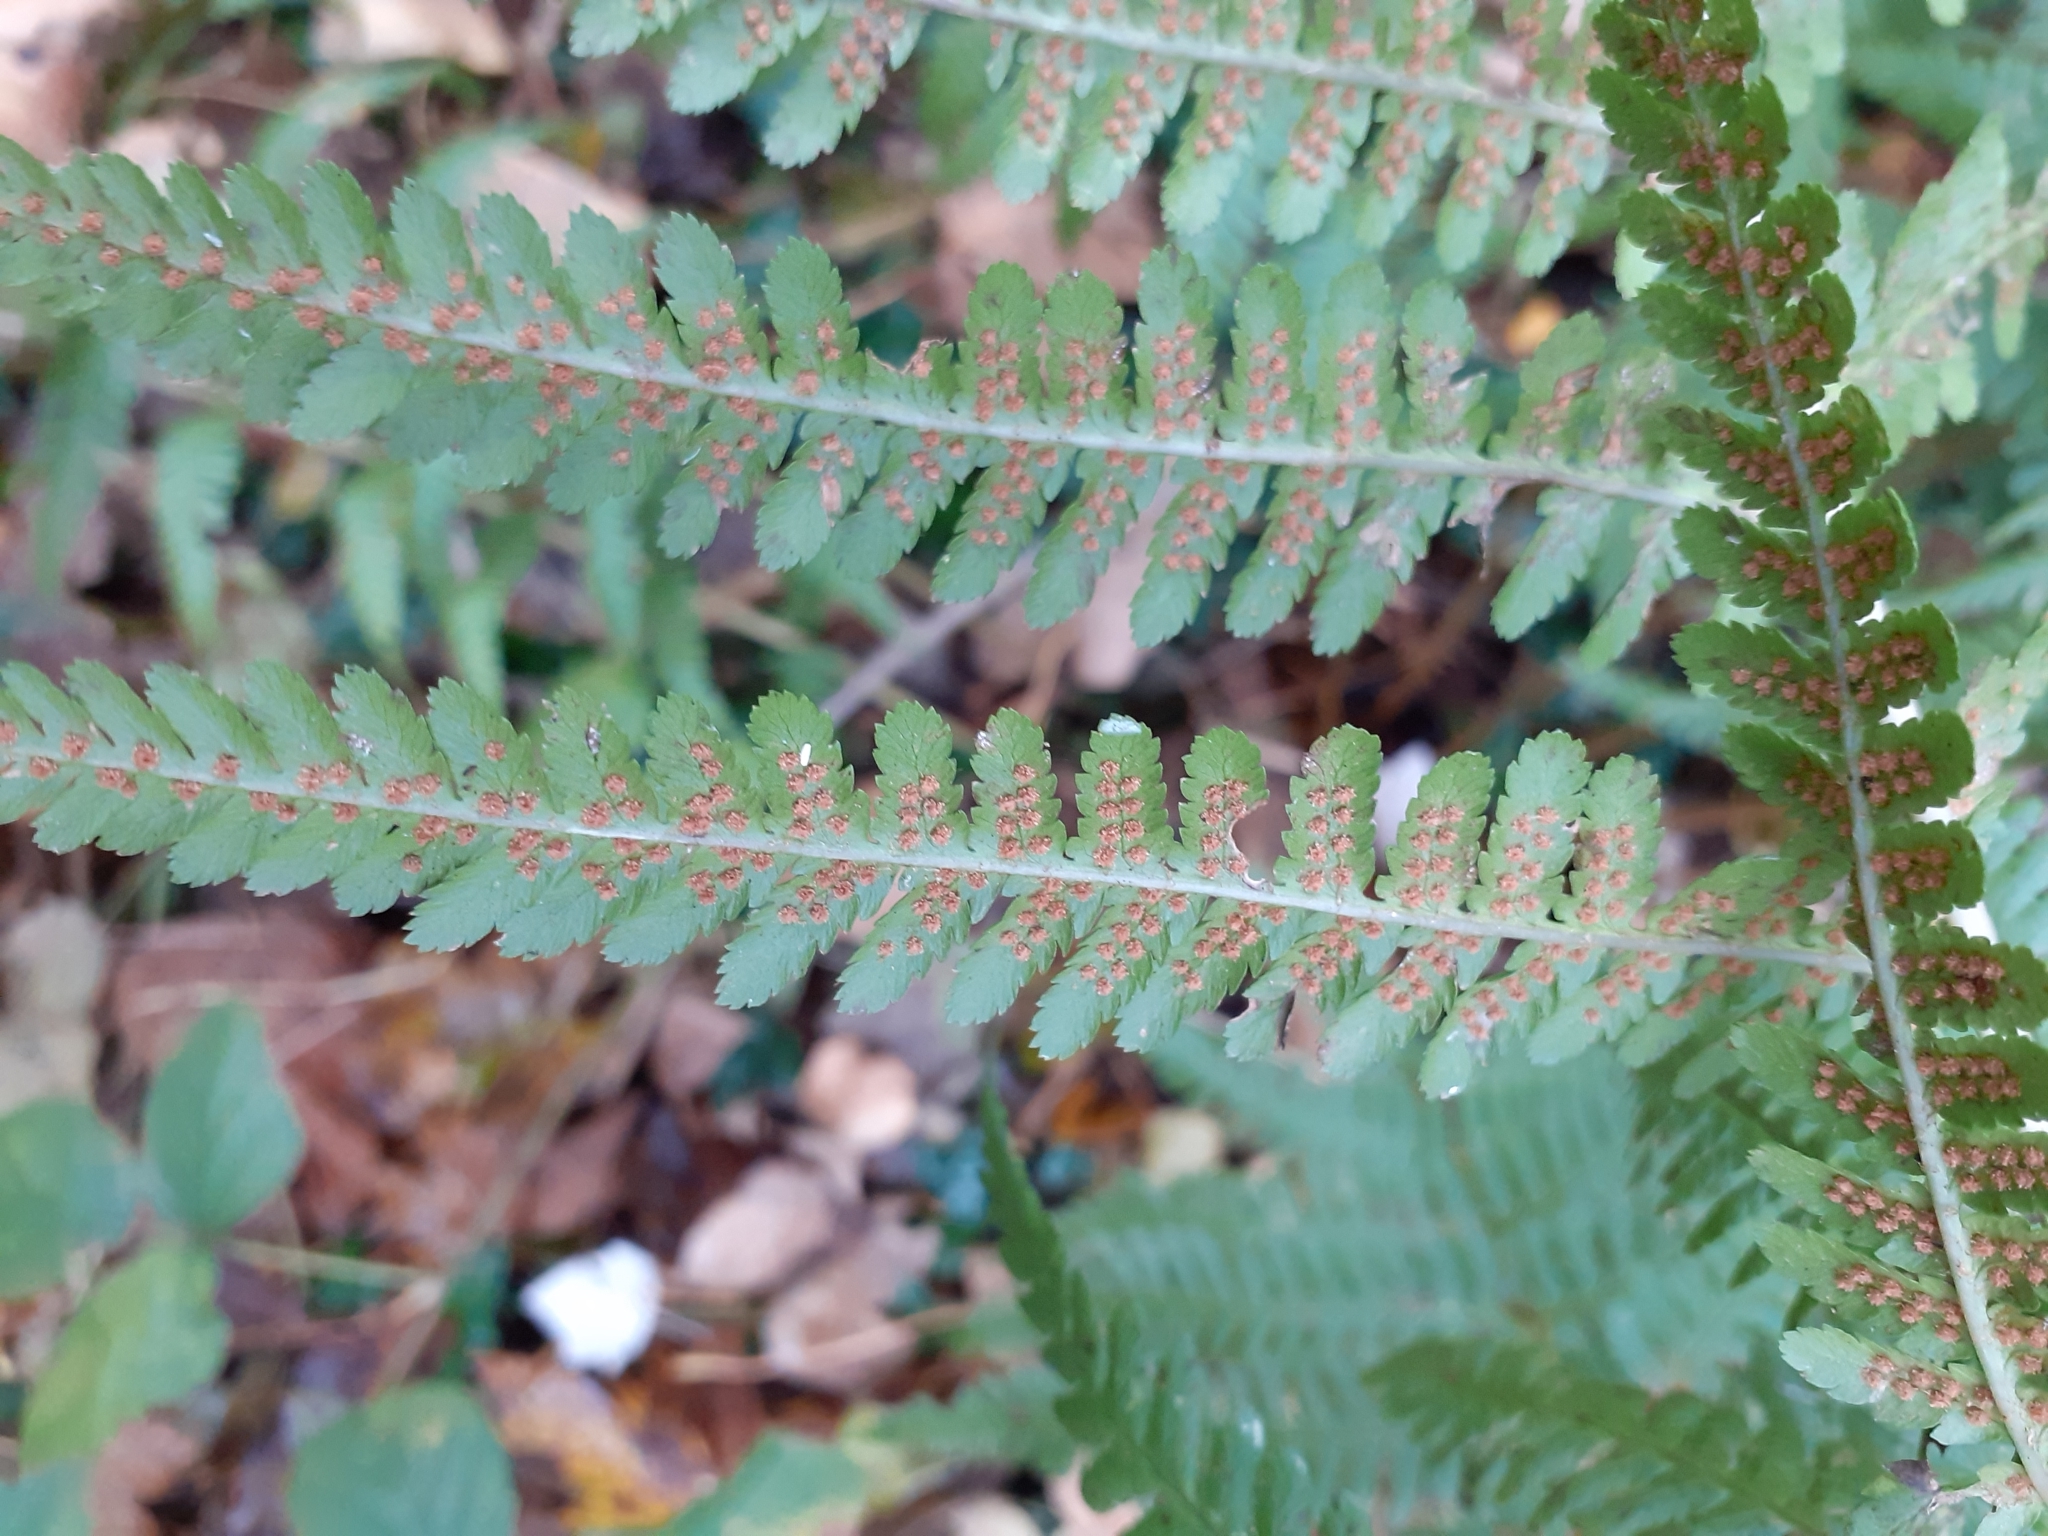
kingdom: Plantae
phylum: Tracheophyta
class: Polypodiopsida
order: Polypodiales
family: Dryopteridaceae
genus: Dryopteris
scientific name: Dryopteris filix-mas
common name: Male fern
